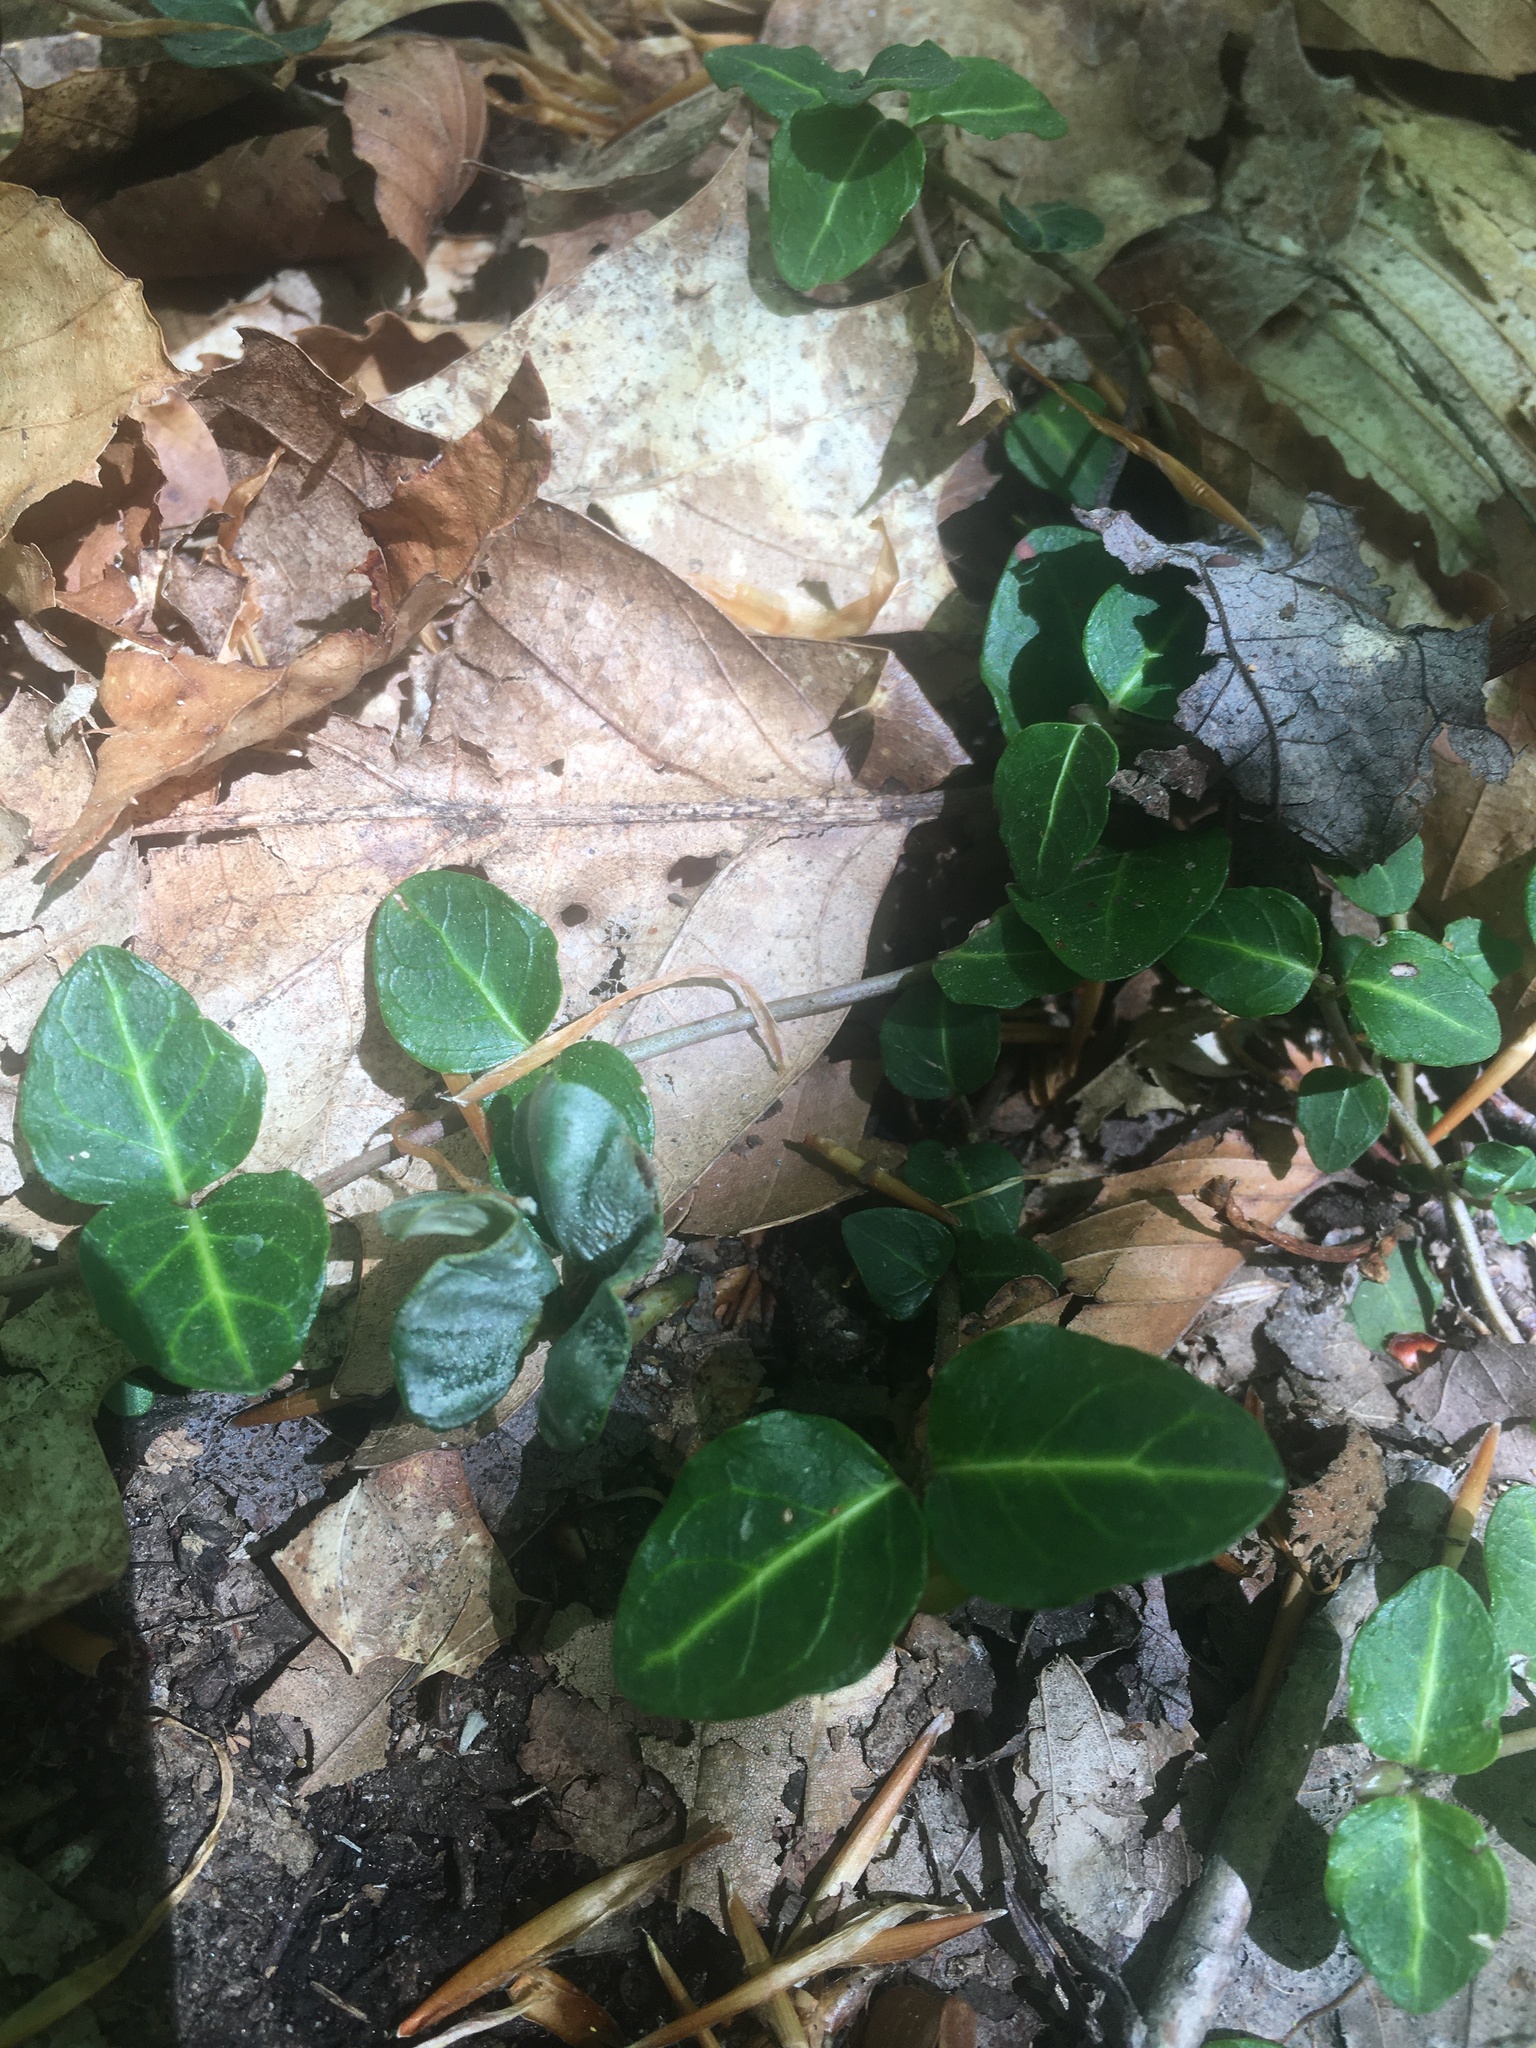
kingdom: Plantae
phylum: Tracheophyta
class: Magnoliopsida
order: Gentianales
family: Rubiaceae
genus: Mitchella
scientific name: Mitchella repens
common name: Partridge-berry
